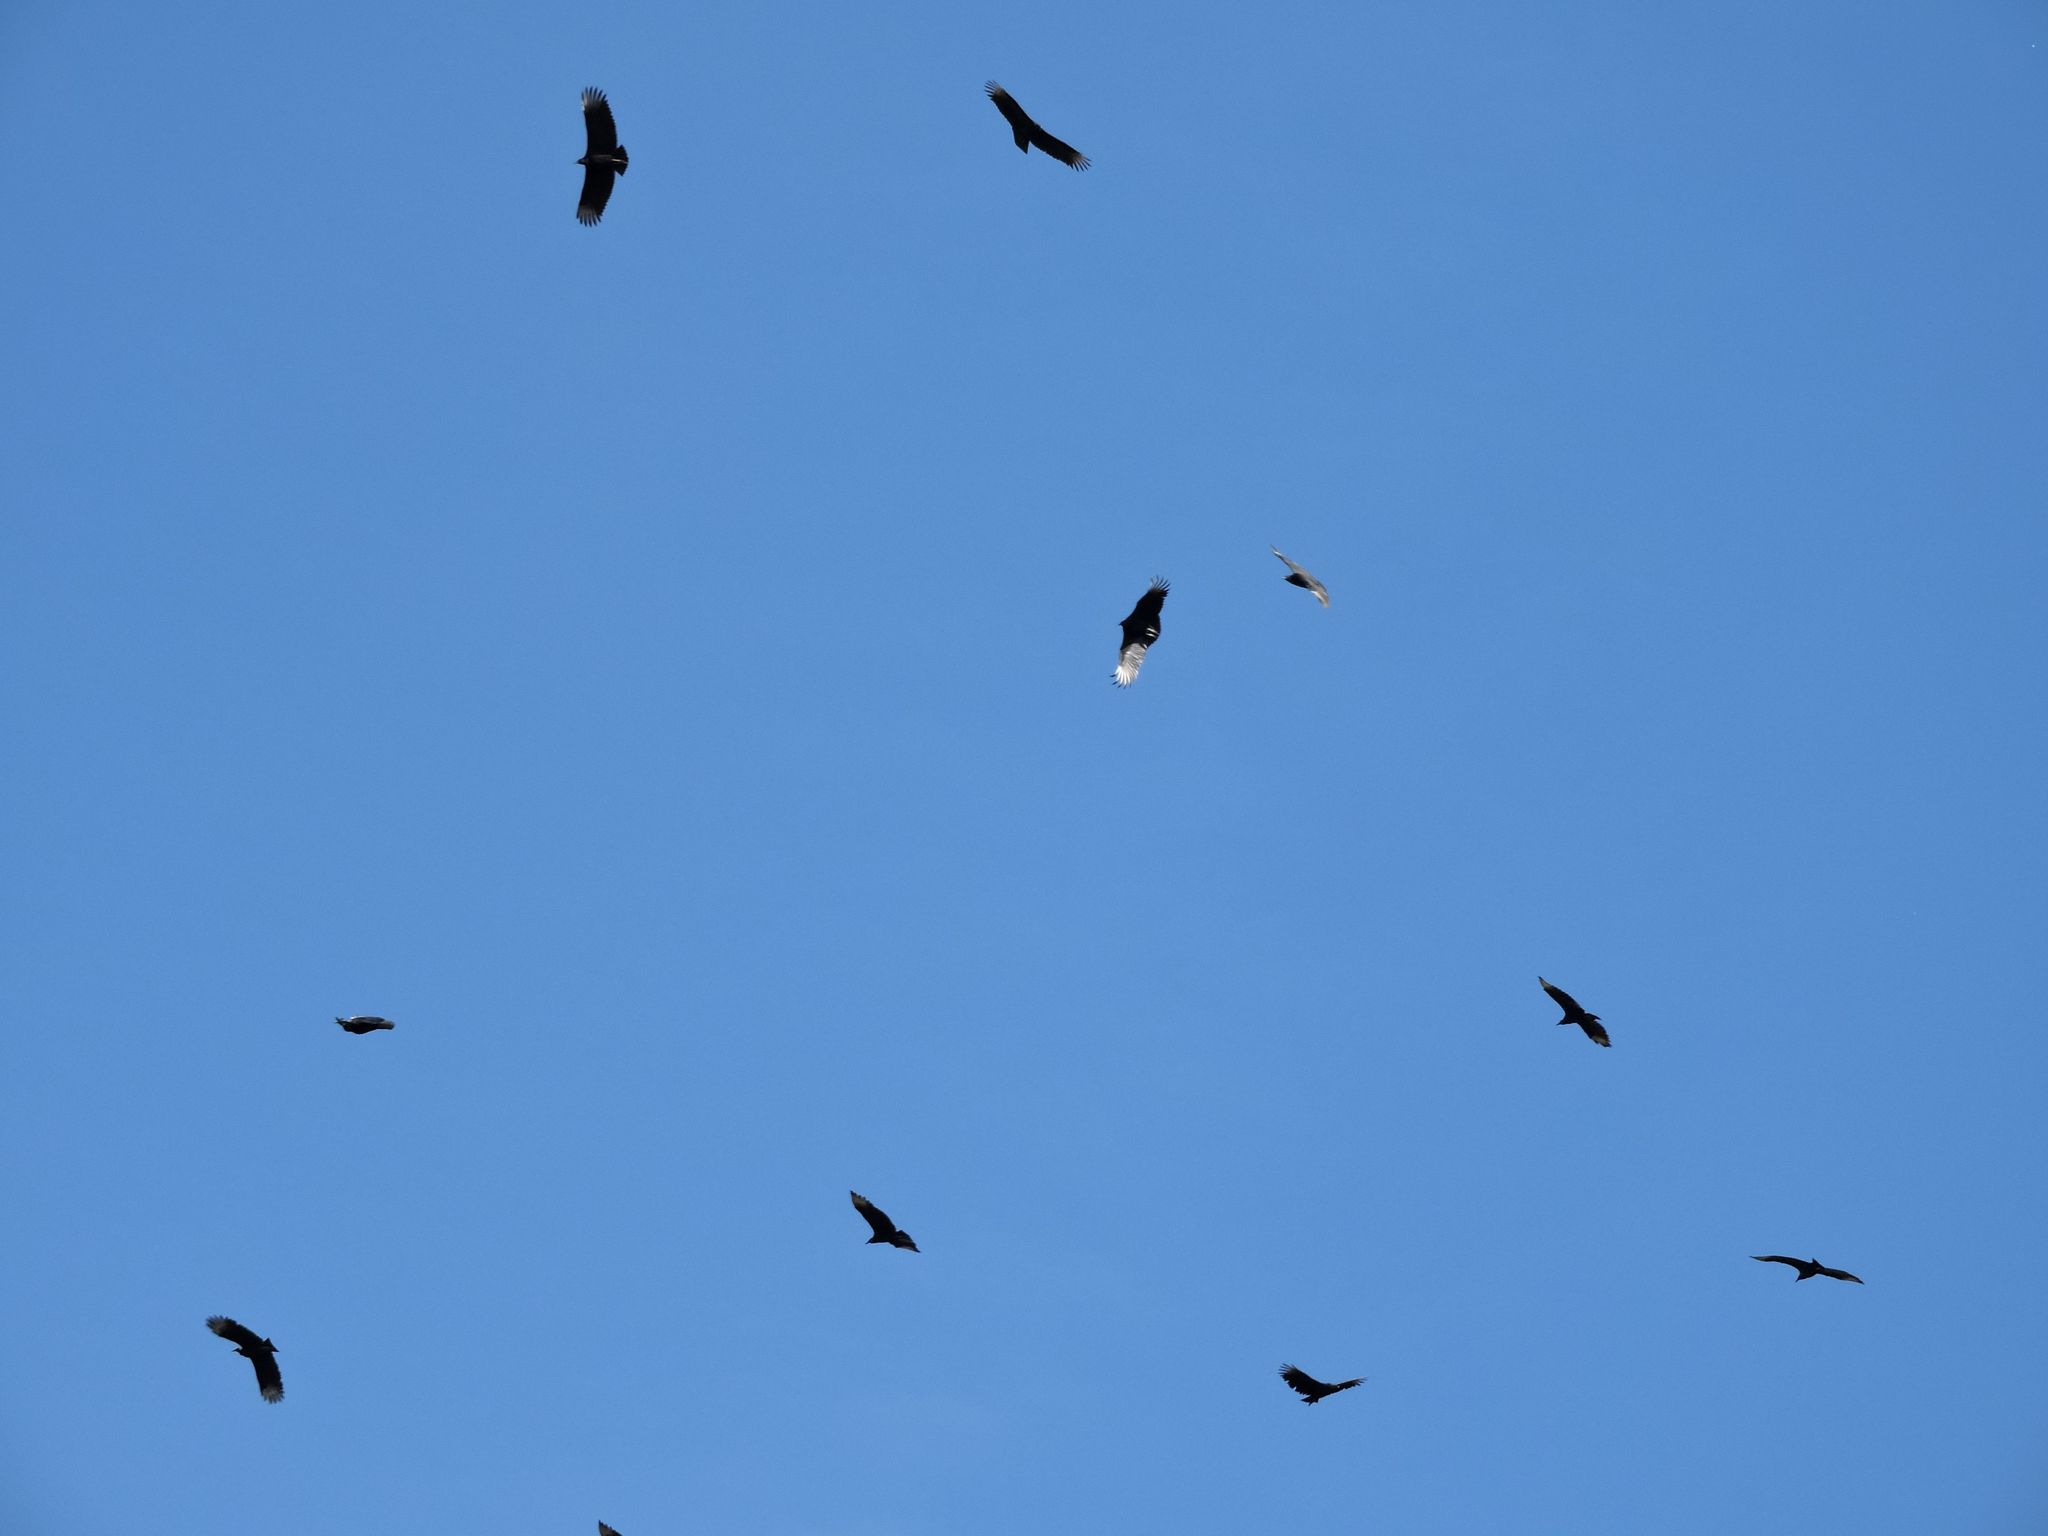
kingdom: Animalia
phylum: Chordata
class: Aves
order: Accipitriformes
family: Cathartidae
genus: Coragyps
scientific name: Coragyps atratus
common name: Black vulture
